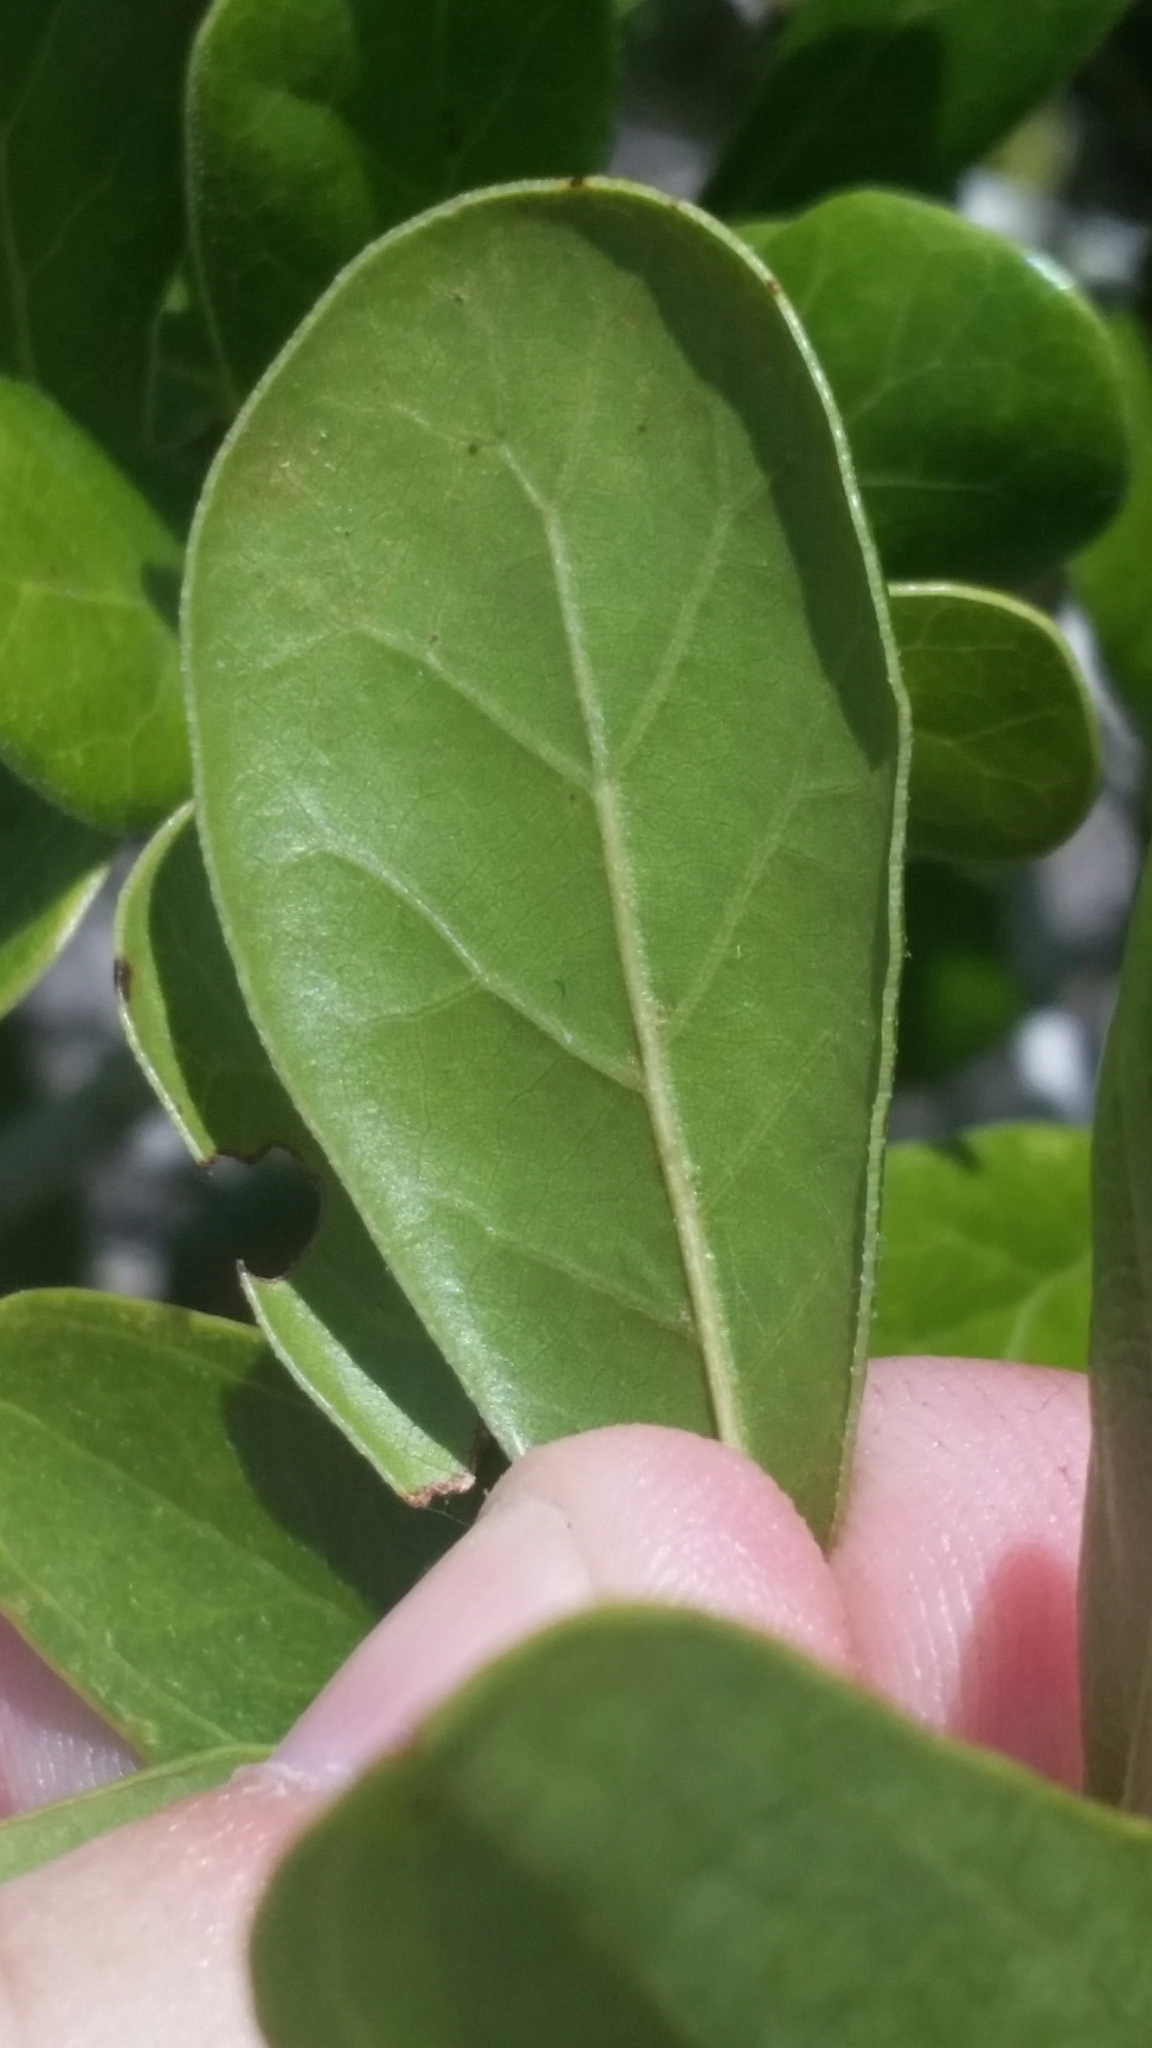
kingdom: Plantae
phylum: Tracheophyta
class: Magnoliopsida
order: Fagales
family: Fagaceae
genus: Quercus
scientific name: Quercus myrtifolia
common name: Myrtle oak
